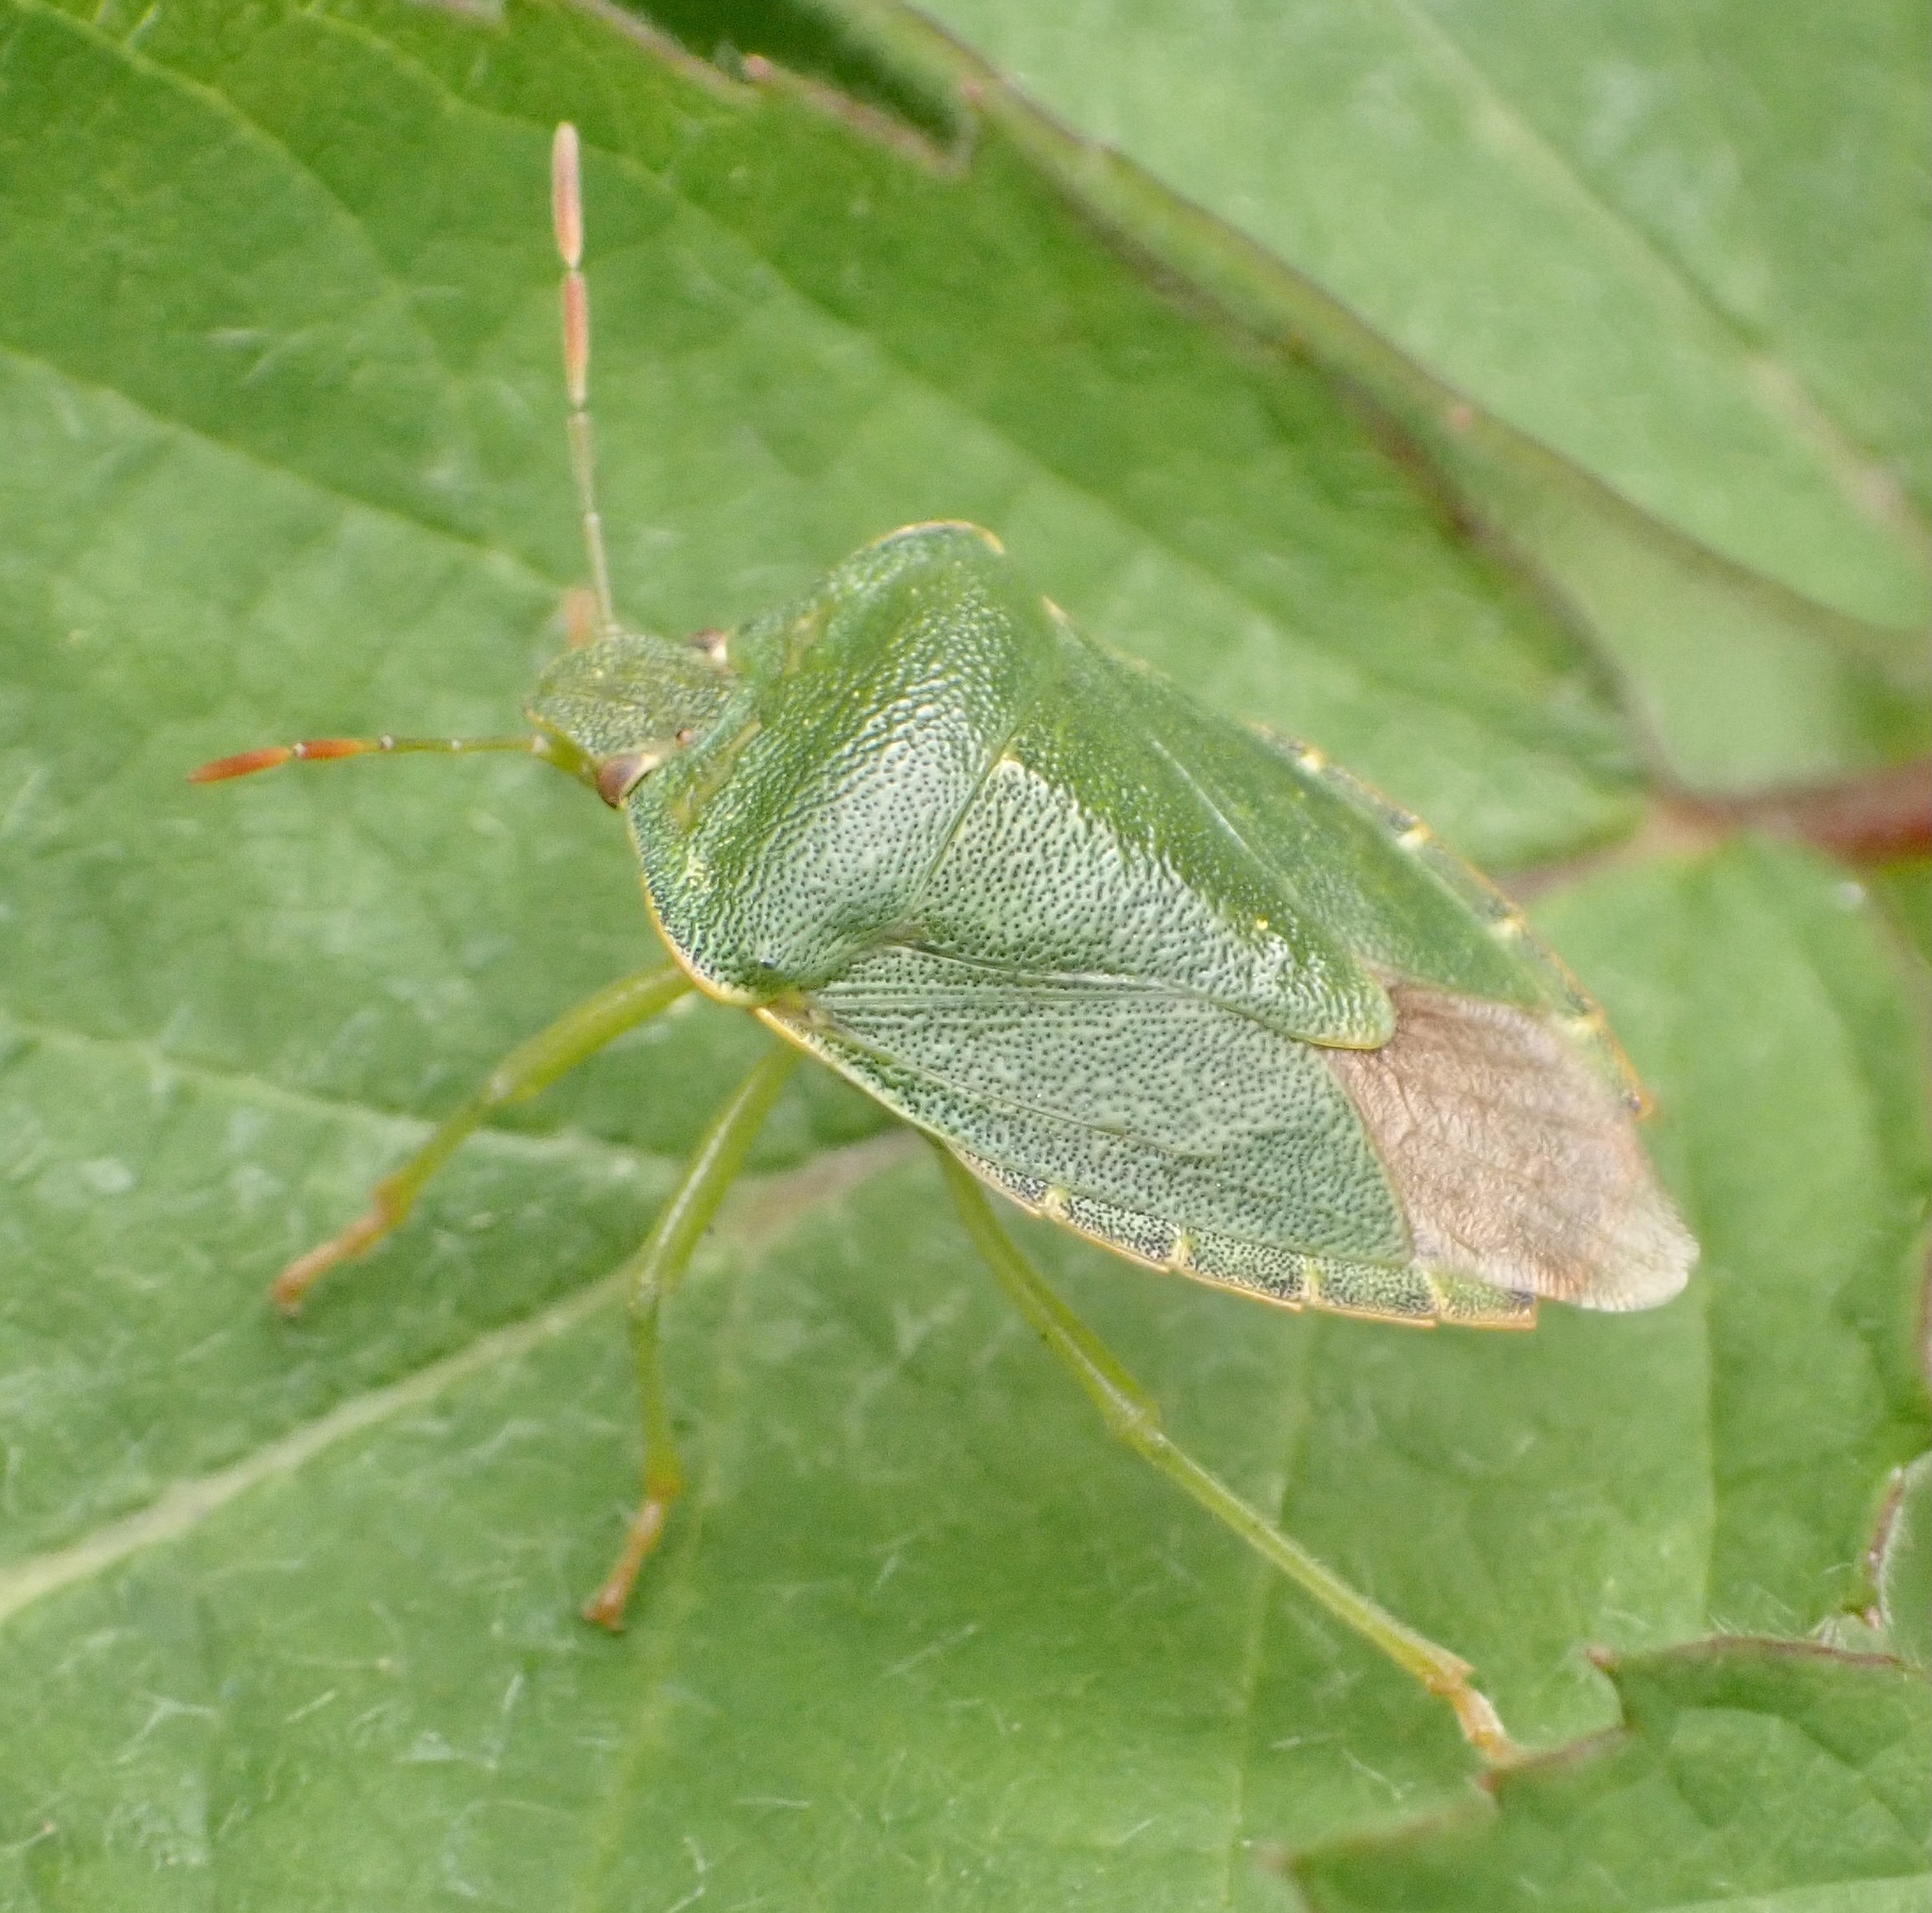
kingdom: Animalia
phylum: Arthropoda
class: Insecta
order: Hemiptera
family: Pentatomidae
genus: Palomena
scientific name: Palomena prasina
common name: Green shieldbug
